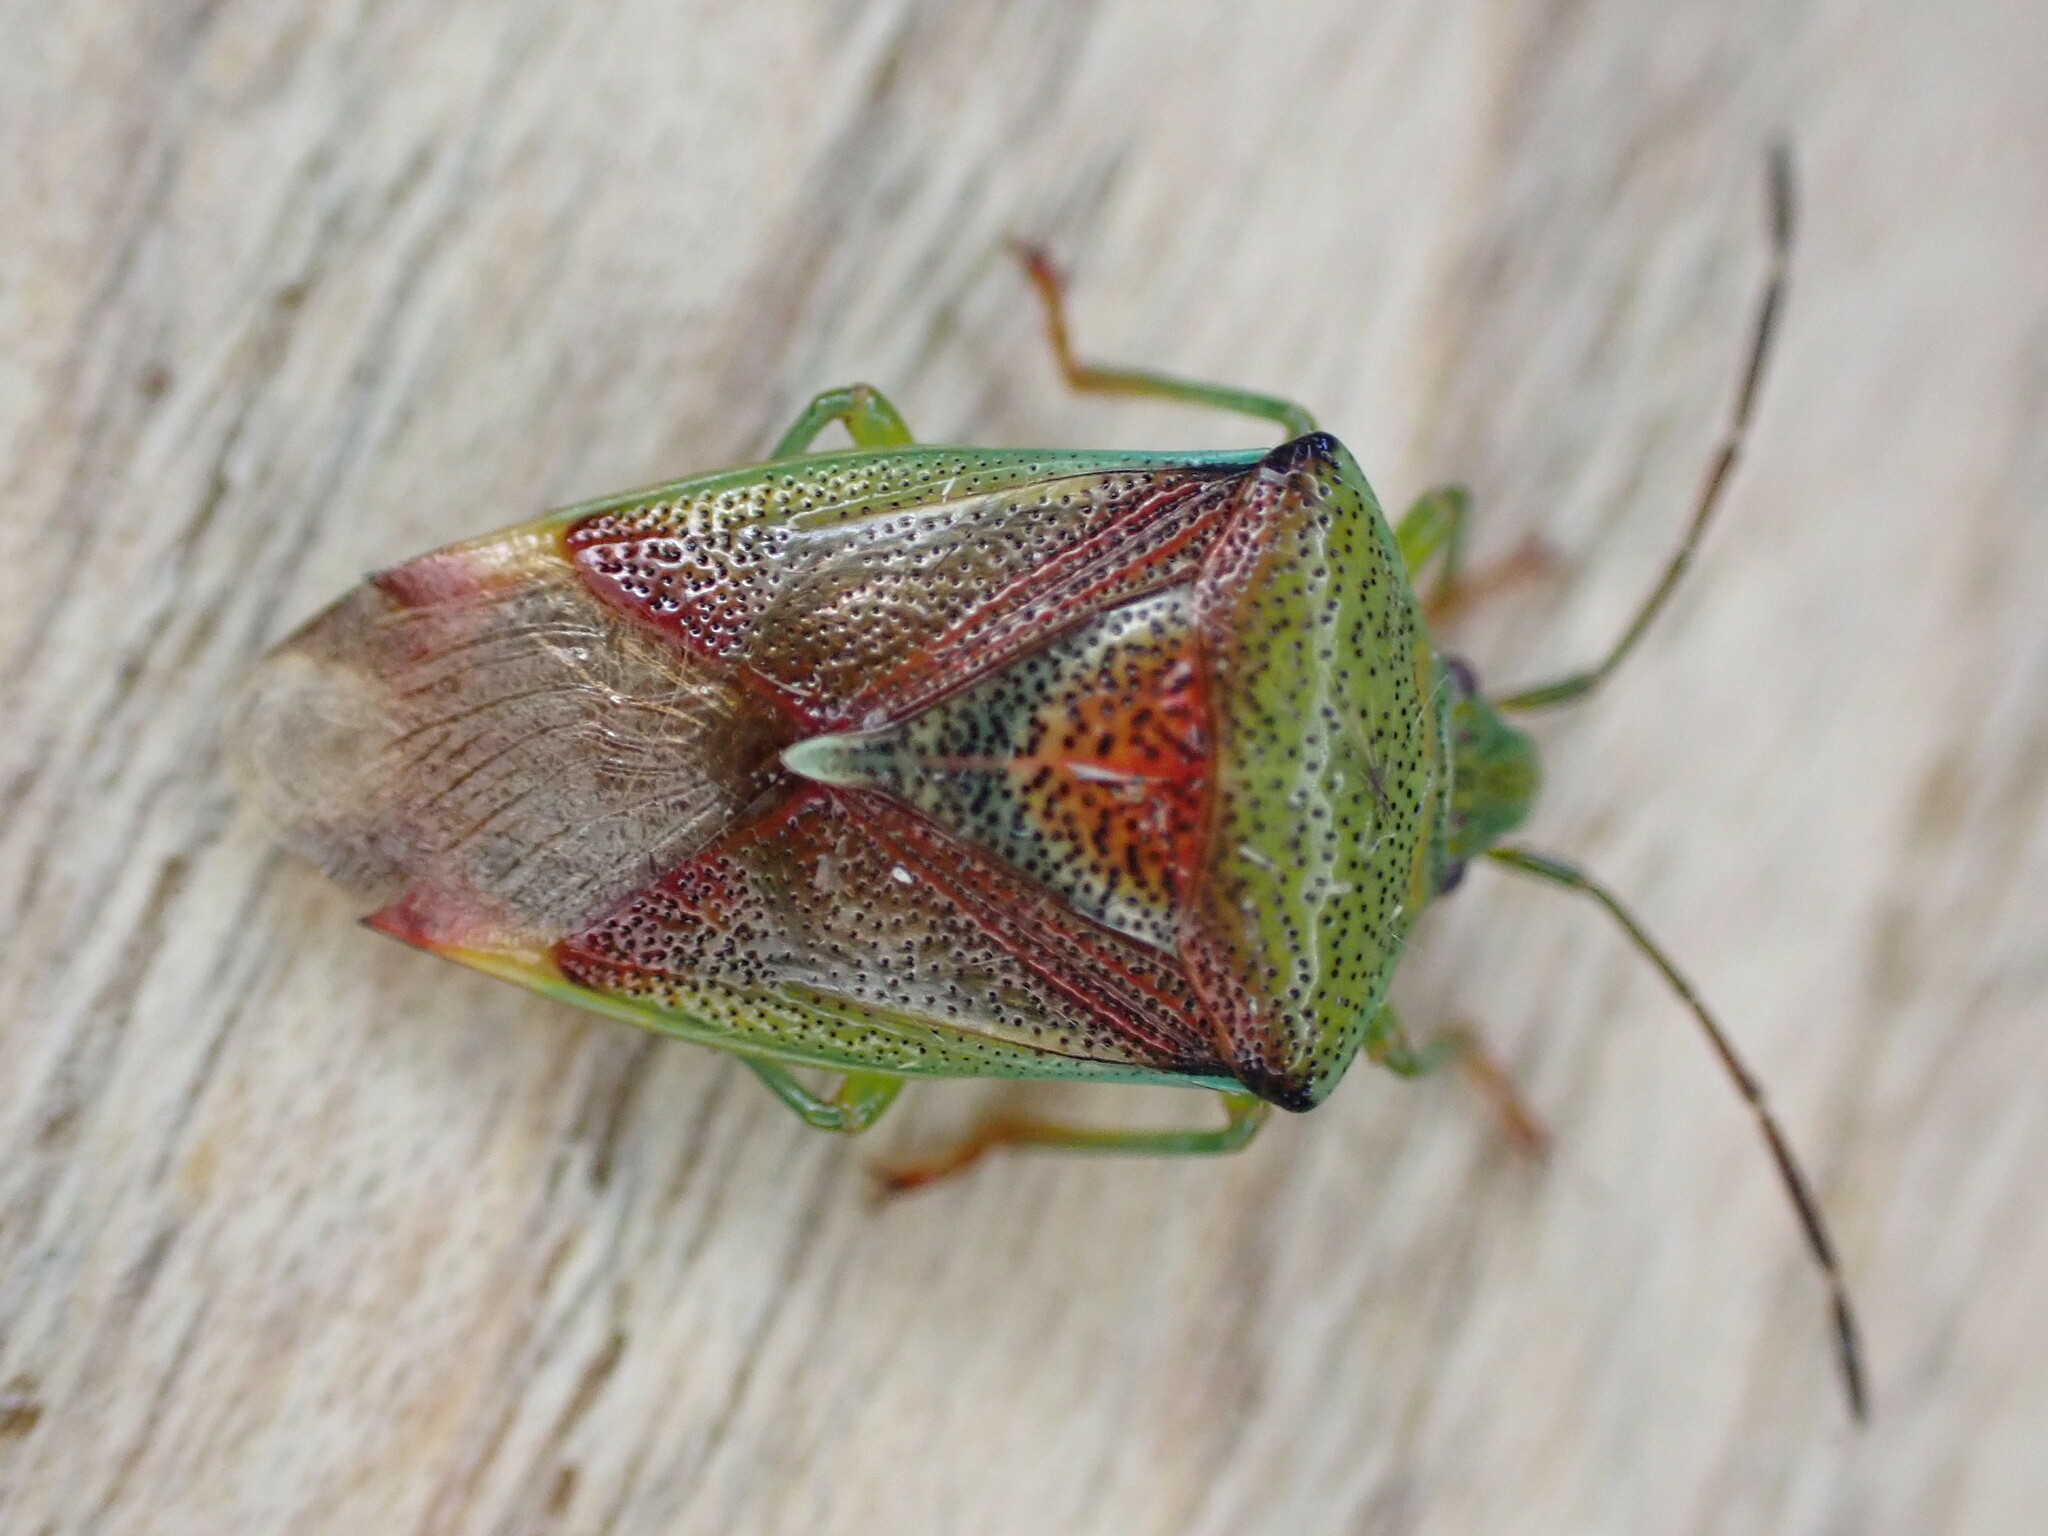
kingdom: Animalia
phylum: Arthropoda
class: Insecta
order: Hemiptera
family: Acanthosomatidae
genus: Elasmostethus
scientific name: Elasmostethus interstinctus
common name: Birch shieldbug
